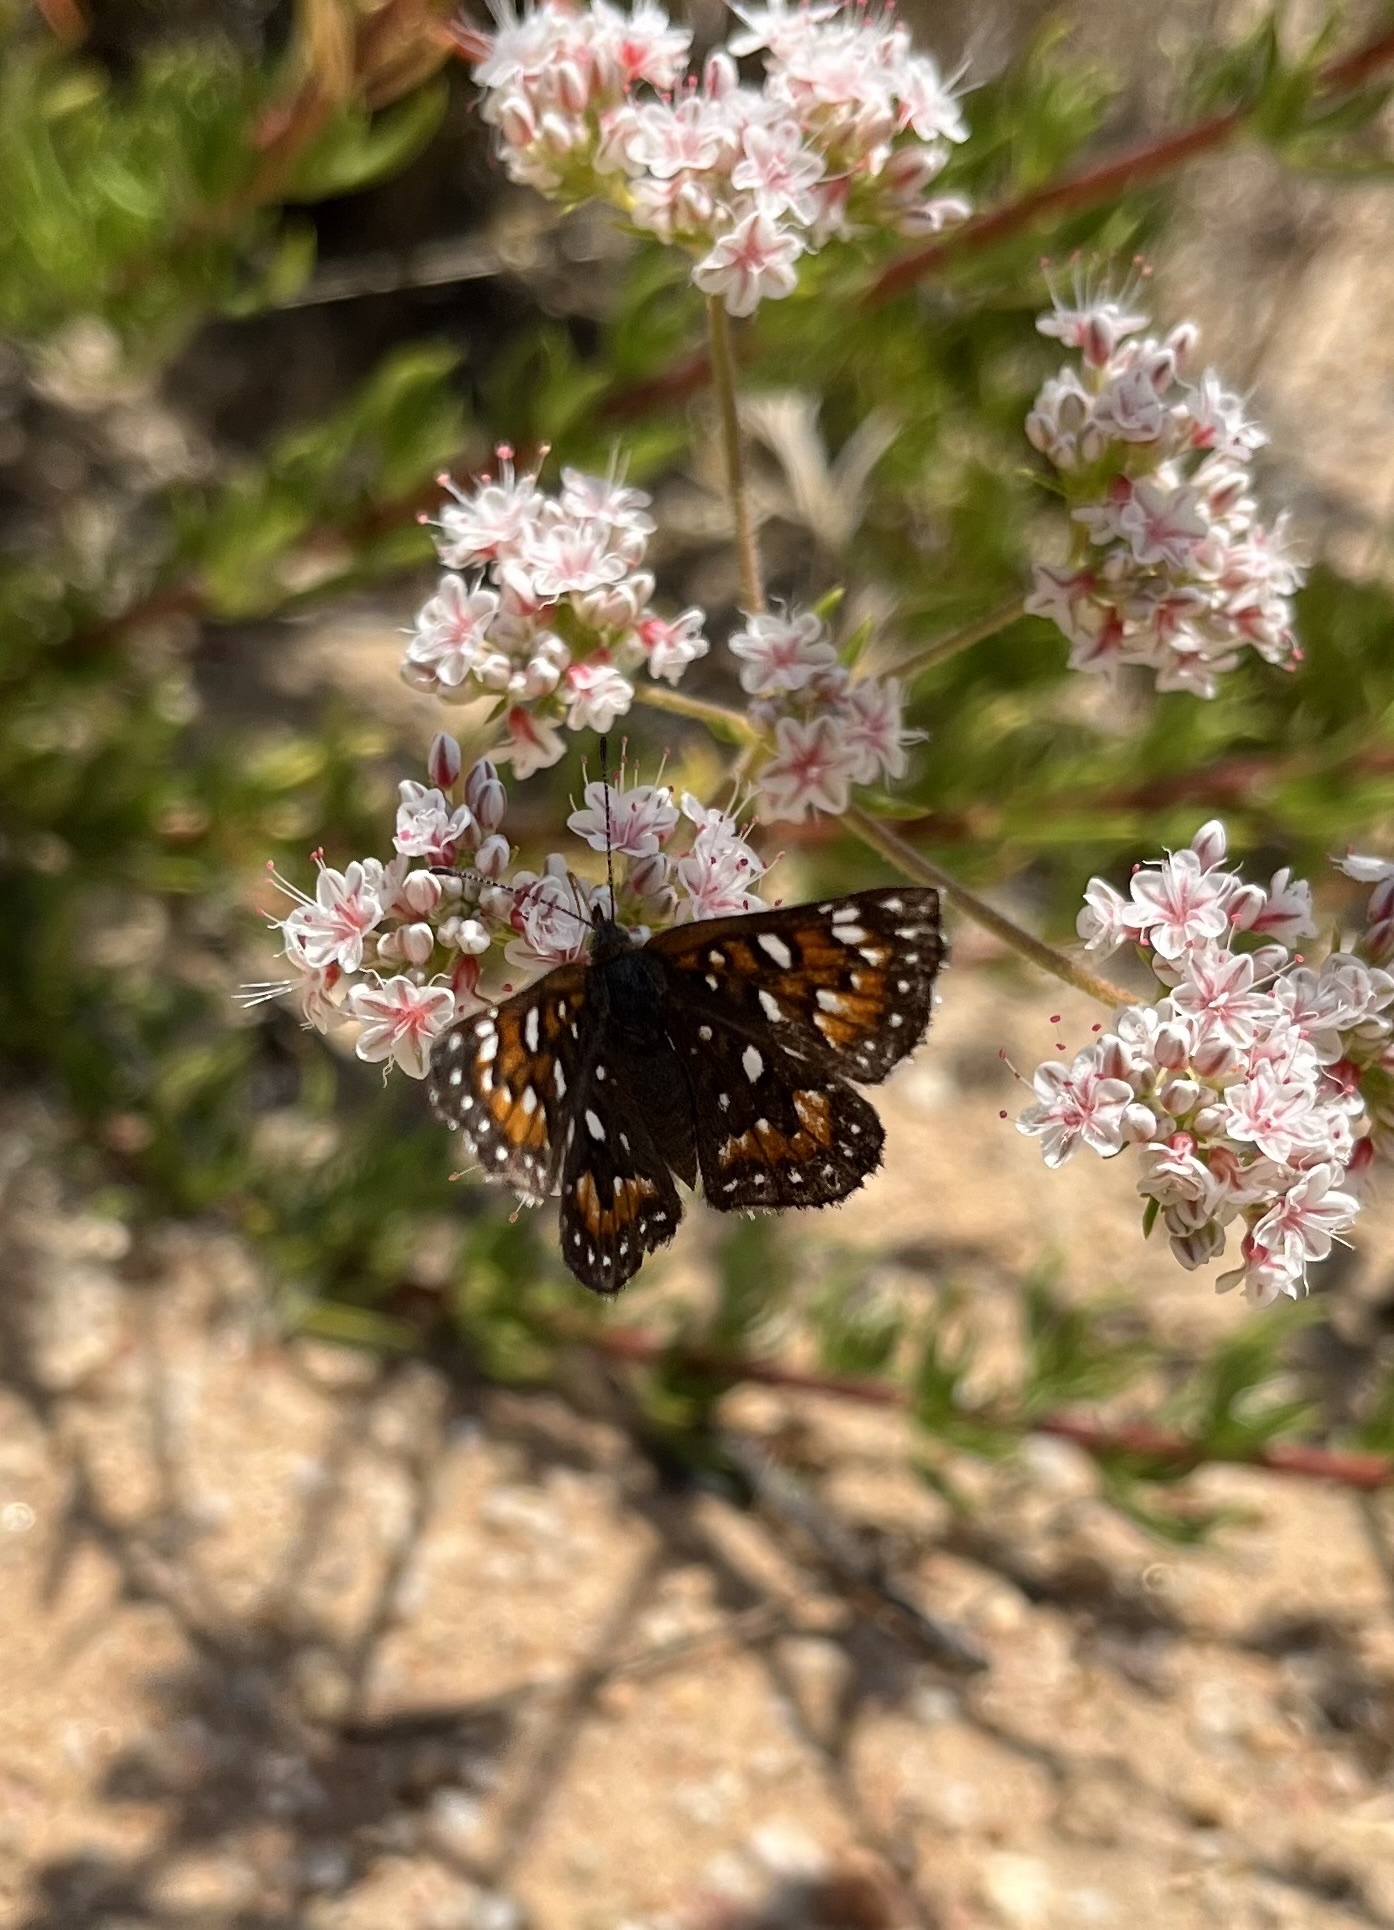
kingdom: Animalia
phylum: Arthropoda
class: Insecta
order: Lepidoptera
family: Riodinidae
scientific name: Riodinidae
